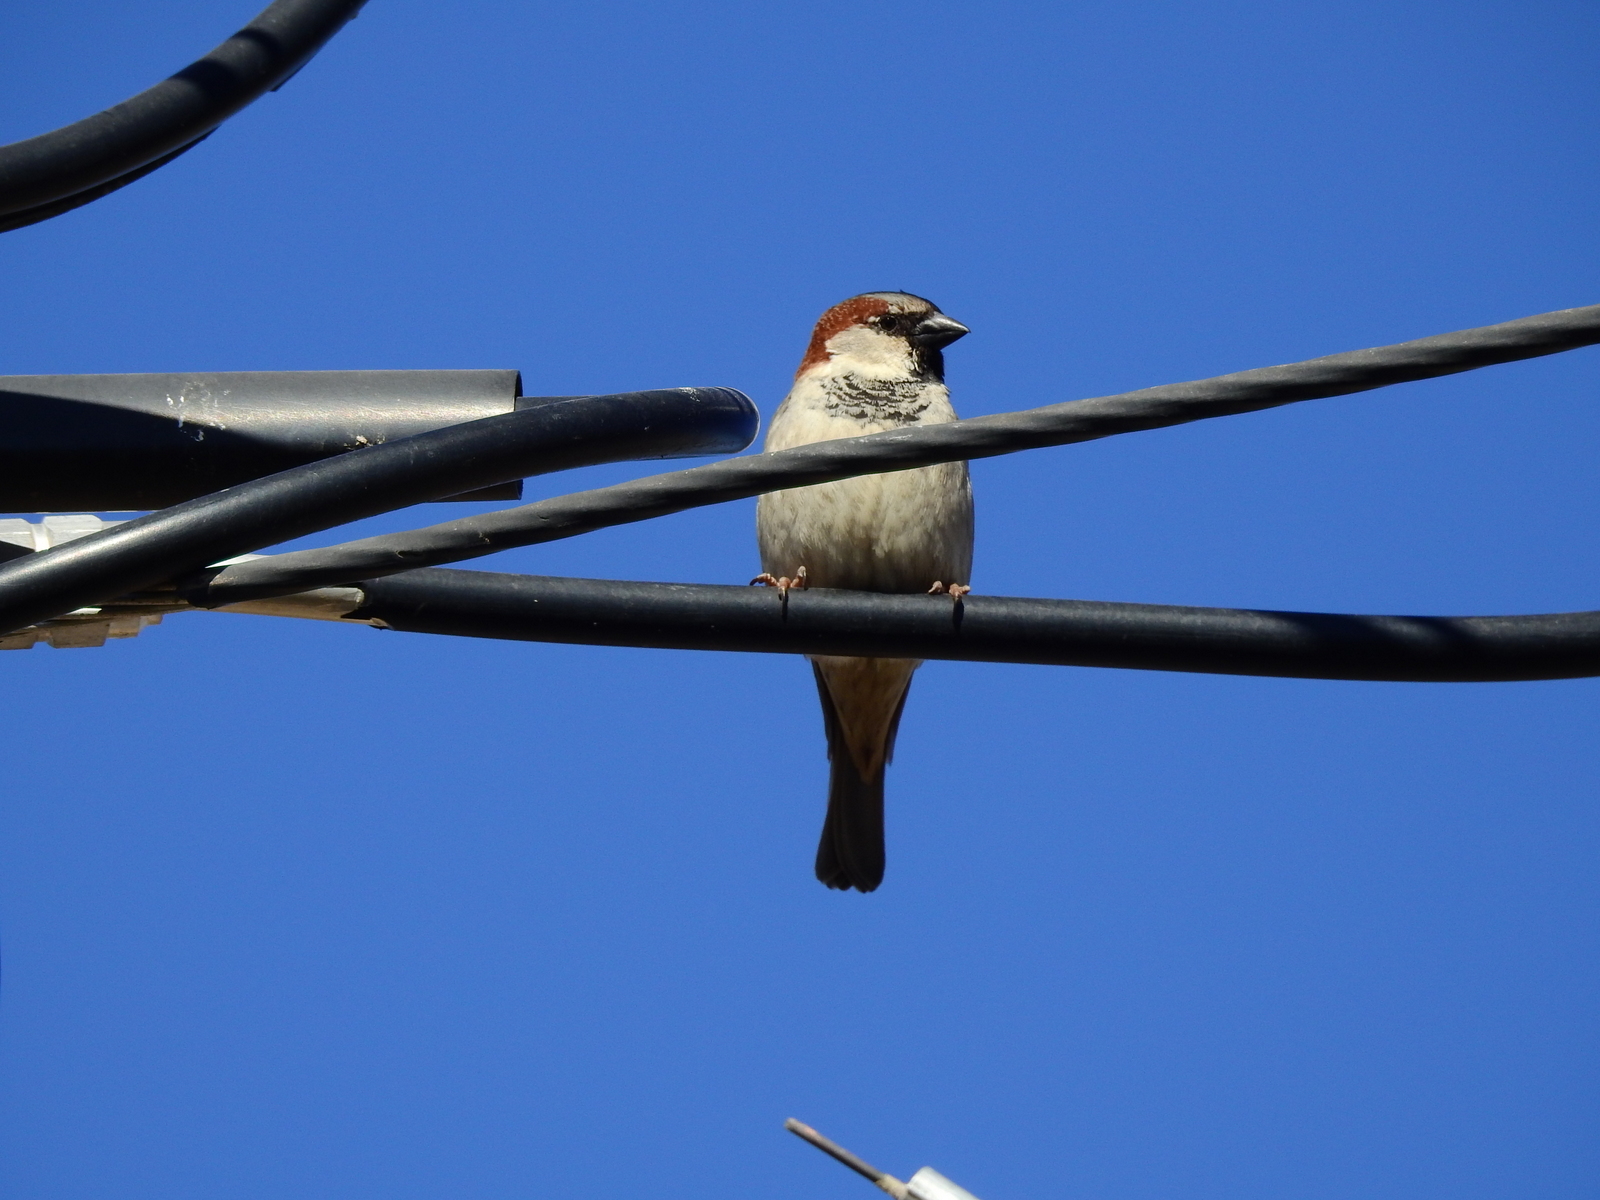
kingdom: Animalia
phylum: Chordata
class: Aves
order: Passeriformes
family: Passeridae
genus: Passer
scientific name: Passer domesticus
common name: House sparrow
